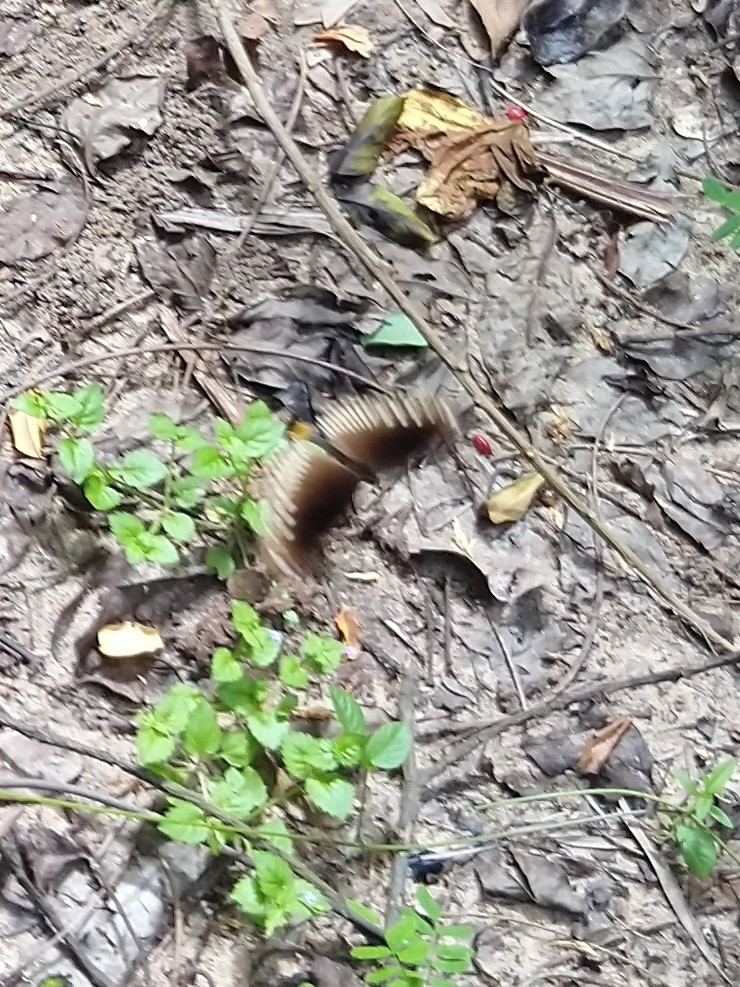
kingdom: Animalia
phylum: Arthropoda
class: Insecta
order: Lepidoptera
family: Nymphalidae
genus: Euploea
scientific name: Euploea core
